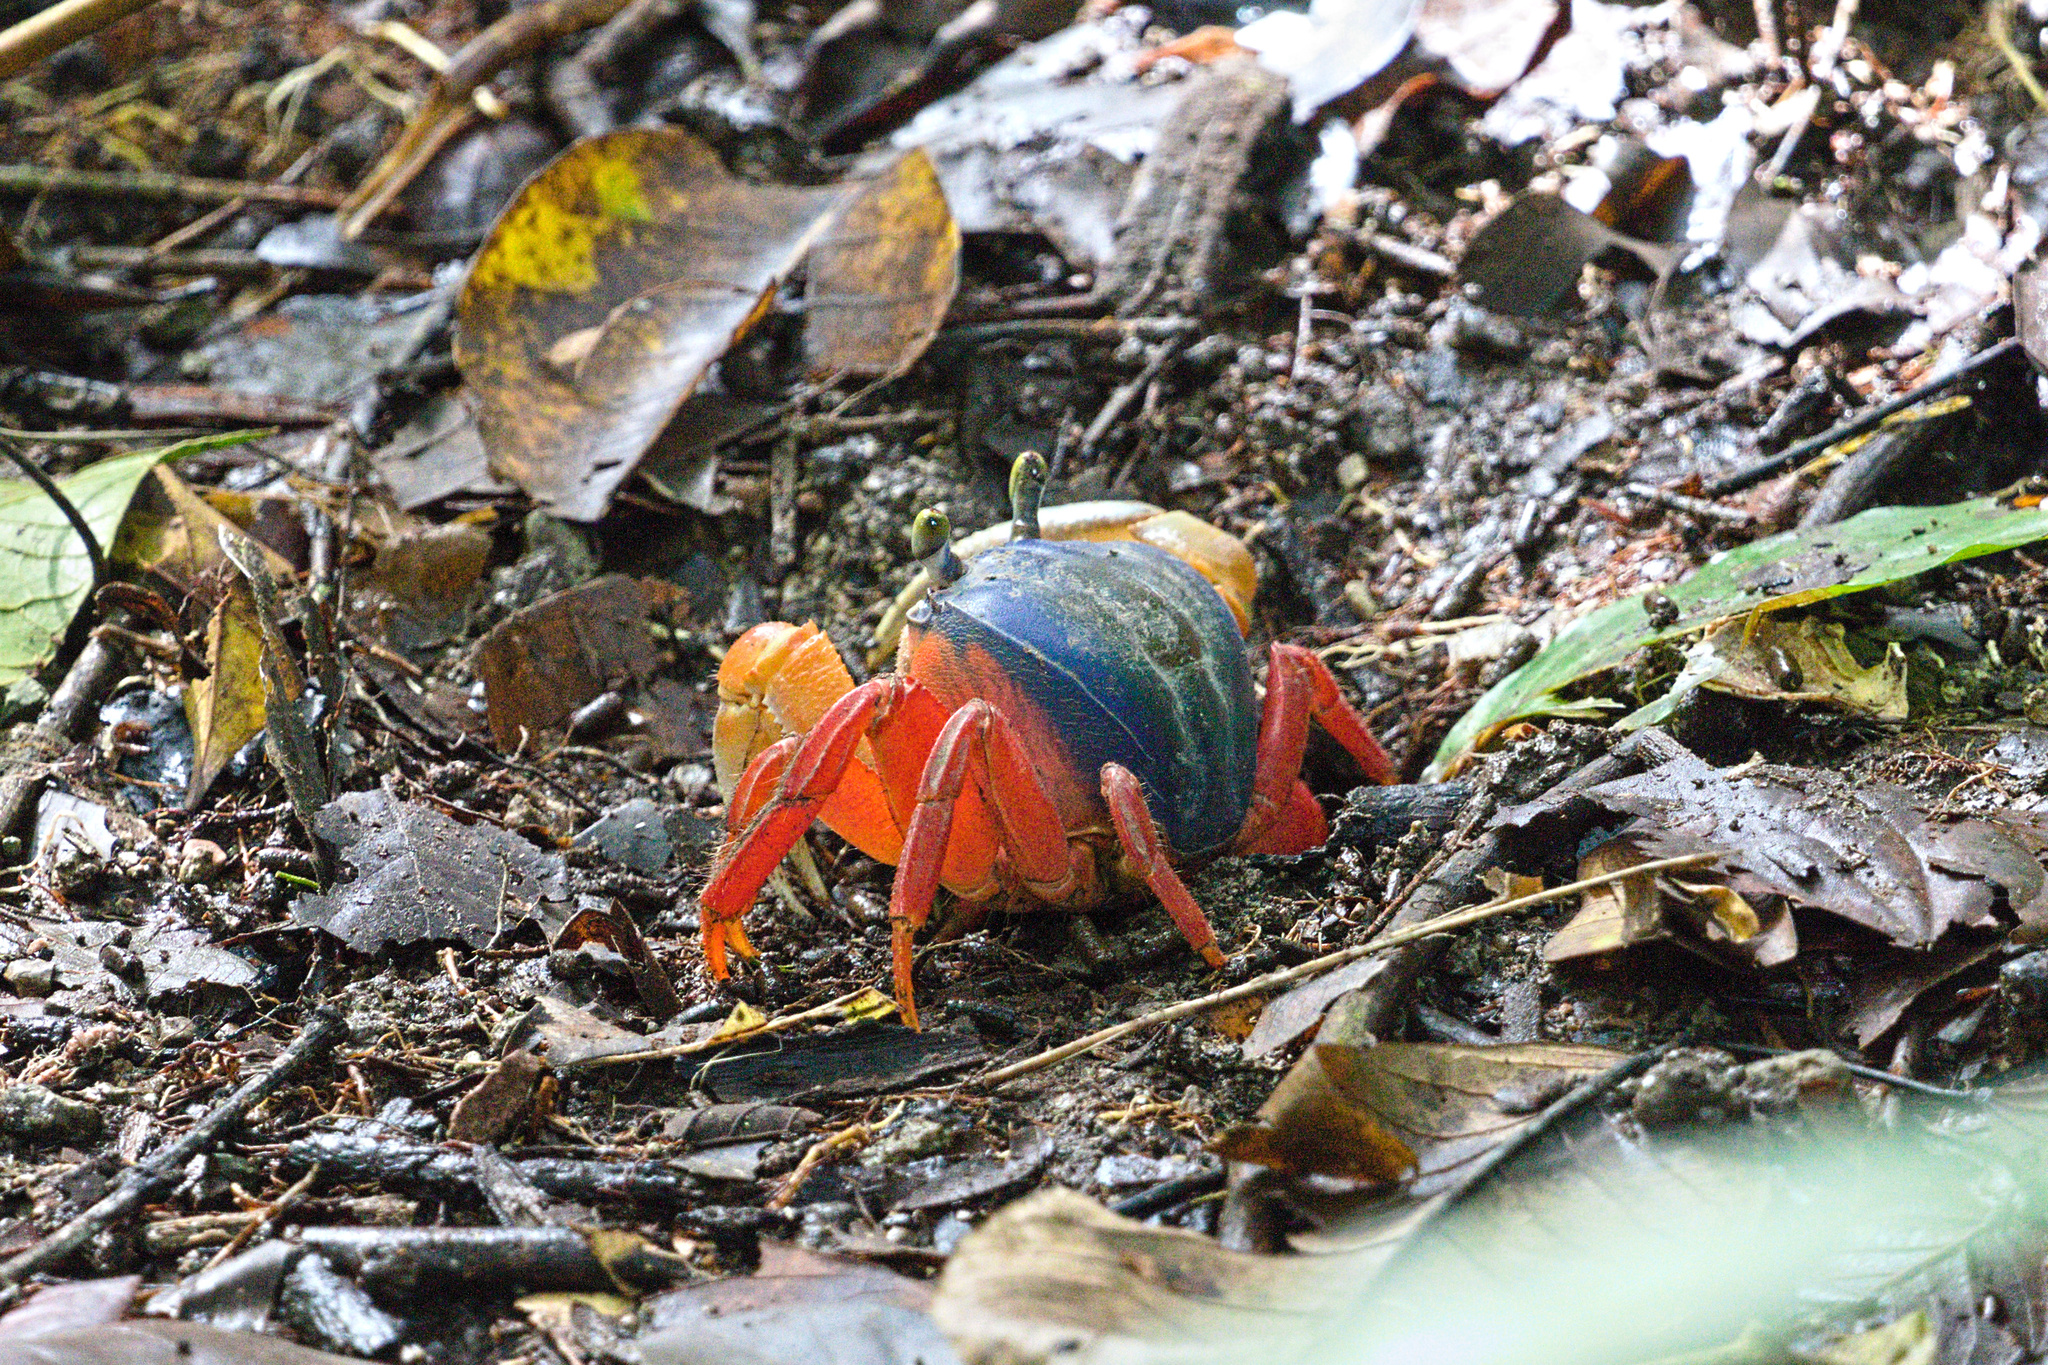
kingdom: Animalia
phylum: Arthropoda
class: Malacostraca
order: Decapoda
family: Gecarcinidae
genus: Cardisoma
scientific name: Cardisoma crassum
